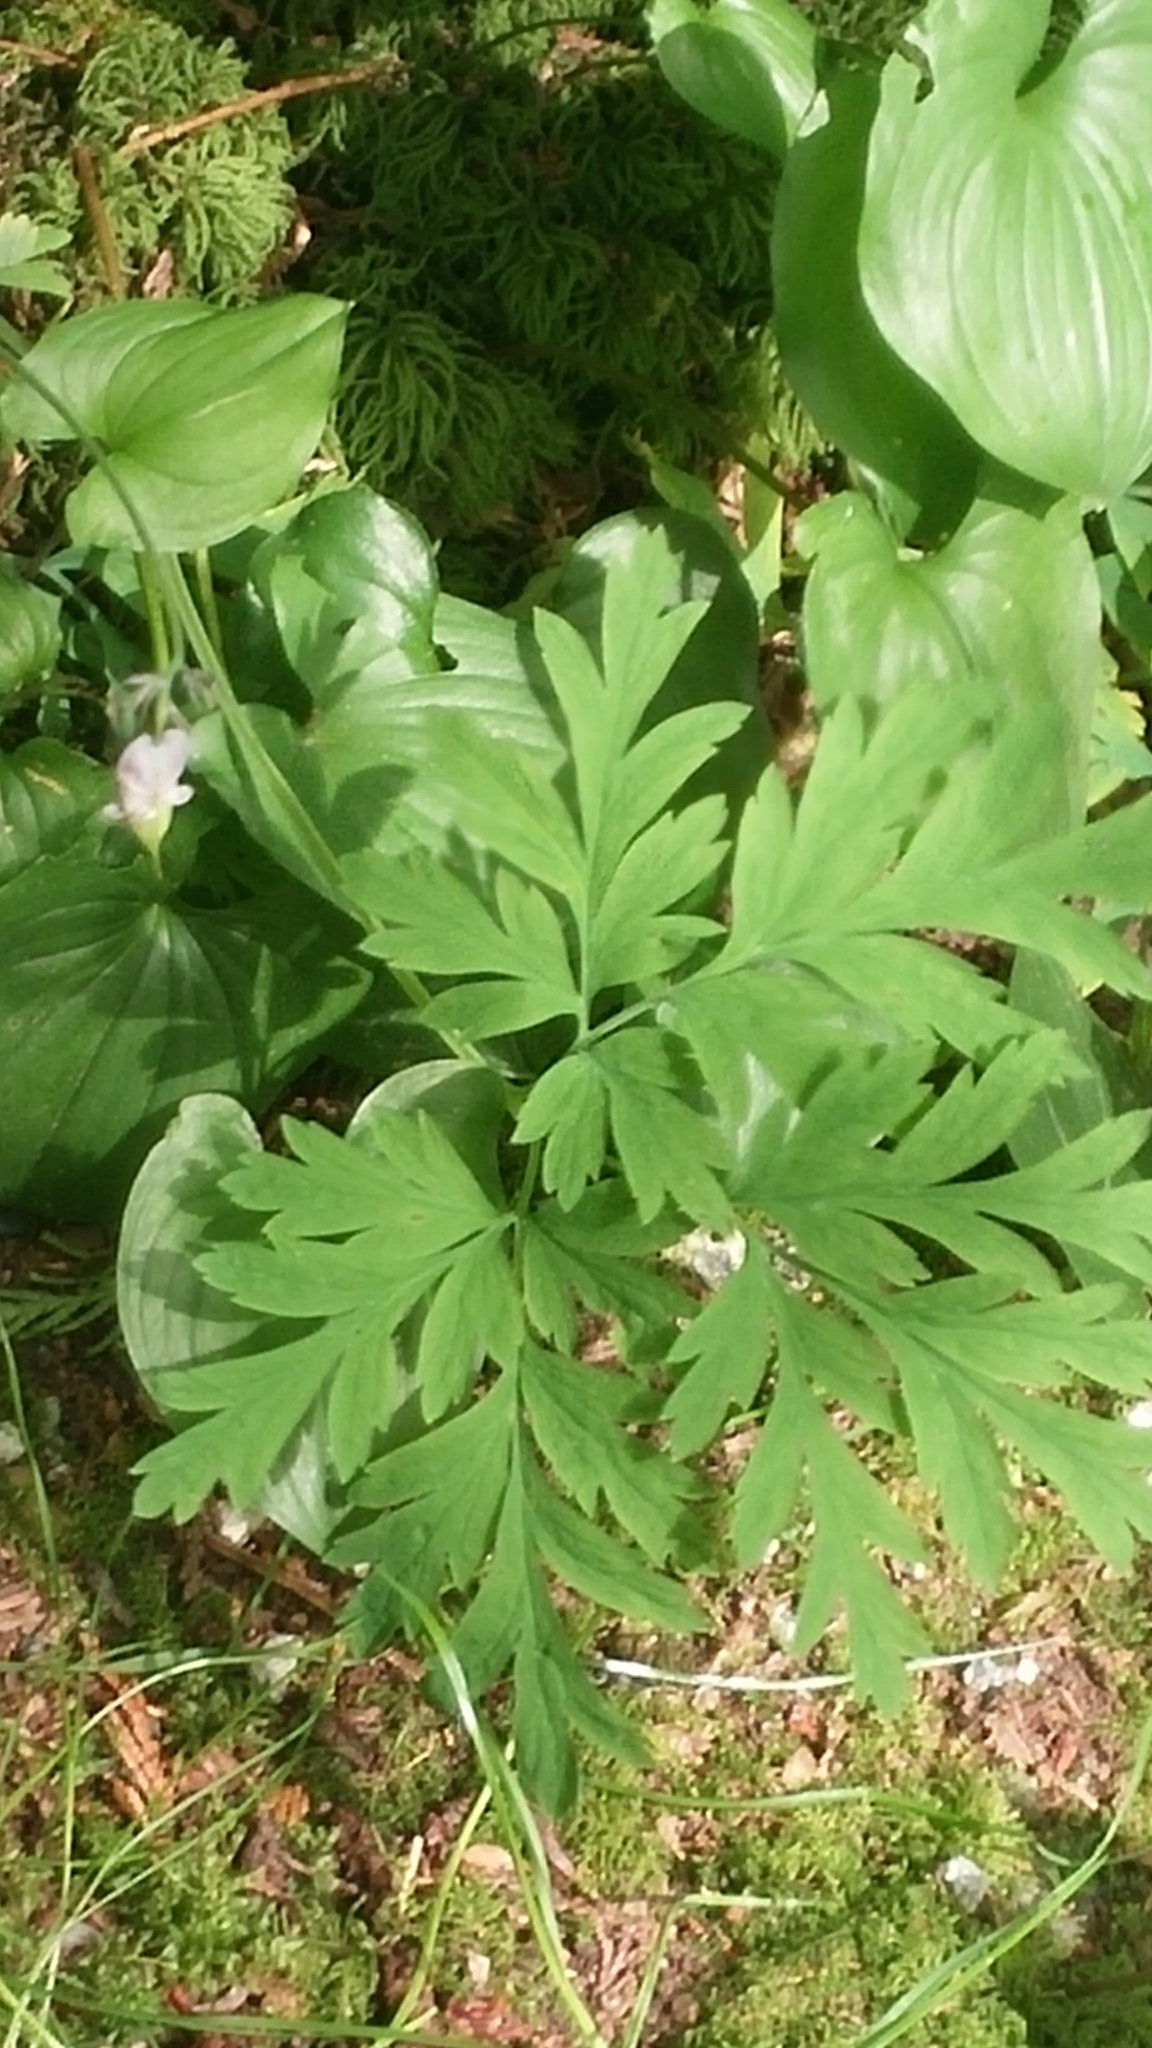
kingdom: Plantae
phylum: Tracheophyta
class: Magnoliopsida
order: Ranunculales
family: Papaveraceae
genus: Dicentra
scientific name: Dicentra formosa
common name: Bleeding-heart
